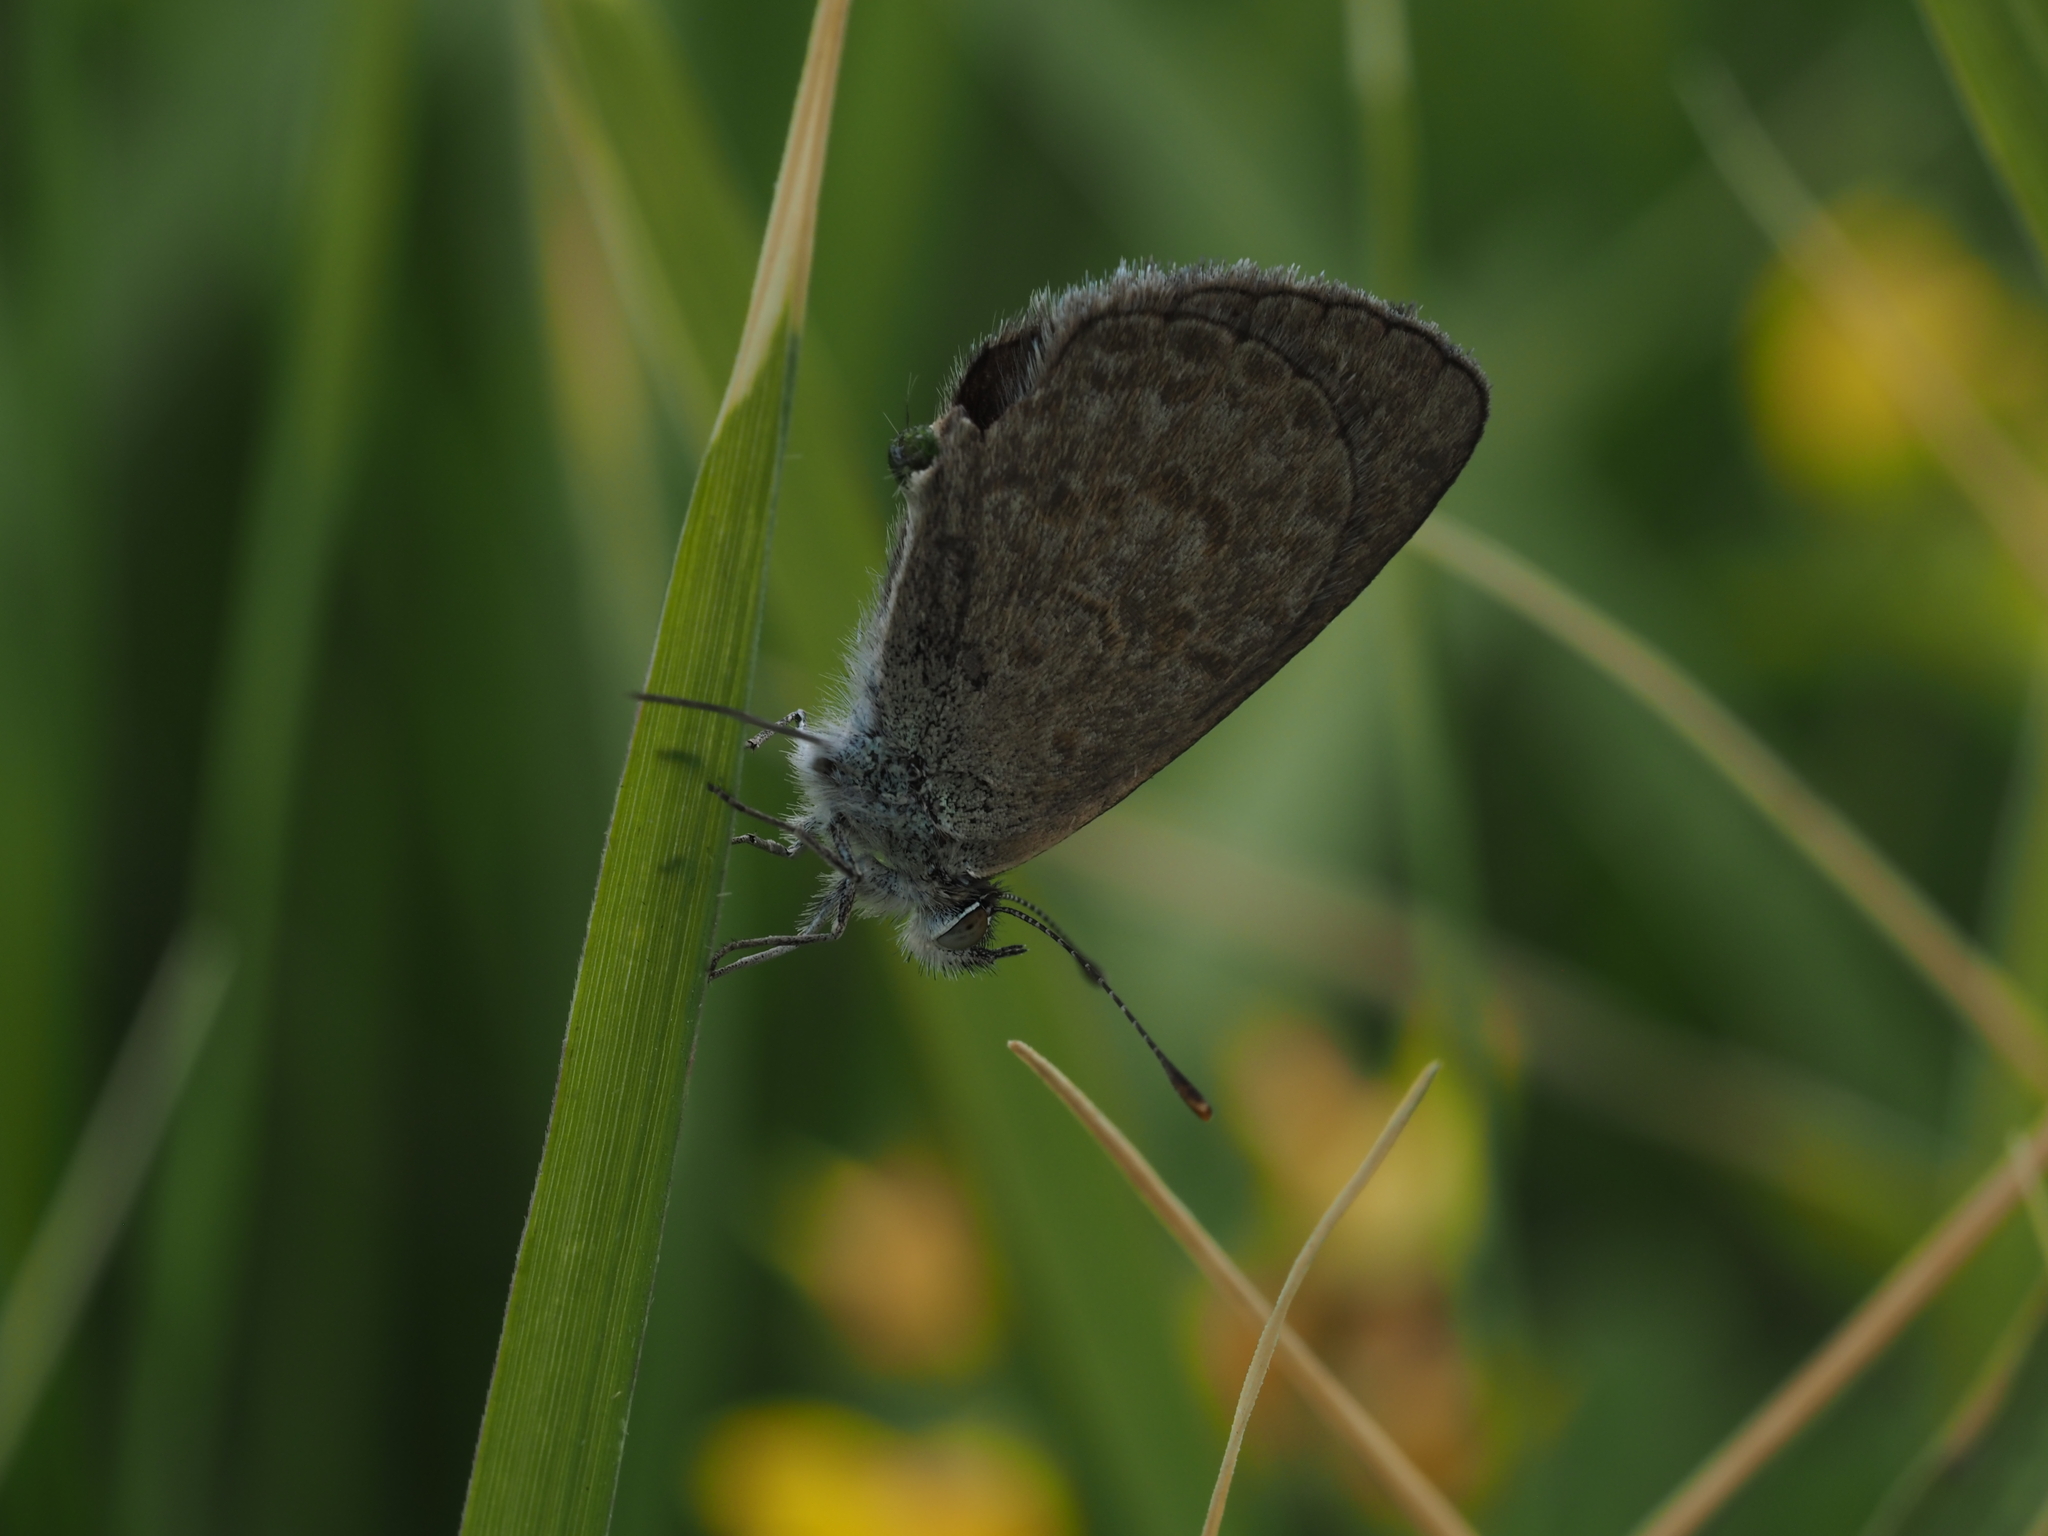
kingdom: Animalia
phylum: Arthropoda
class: Insecta
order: Lepidoptera
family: Lycaenidae
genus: Zizina
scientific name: Zizina otis
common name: Lesser grass blue
